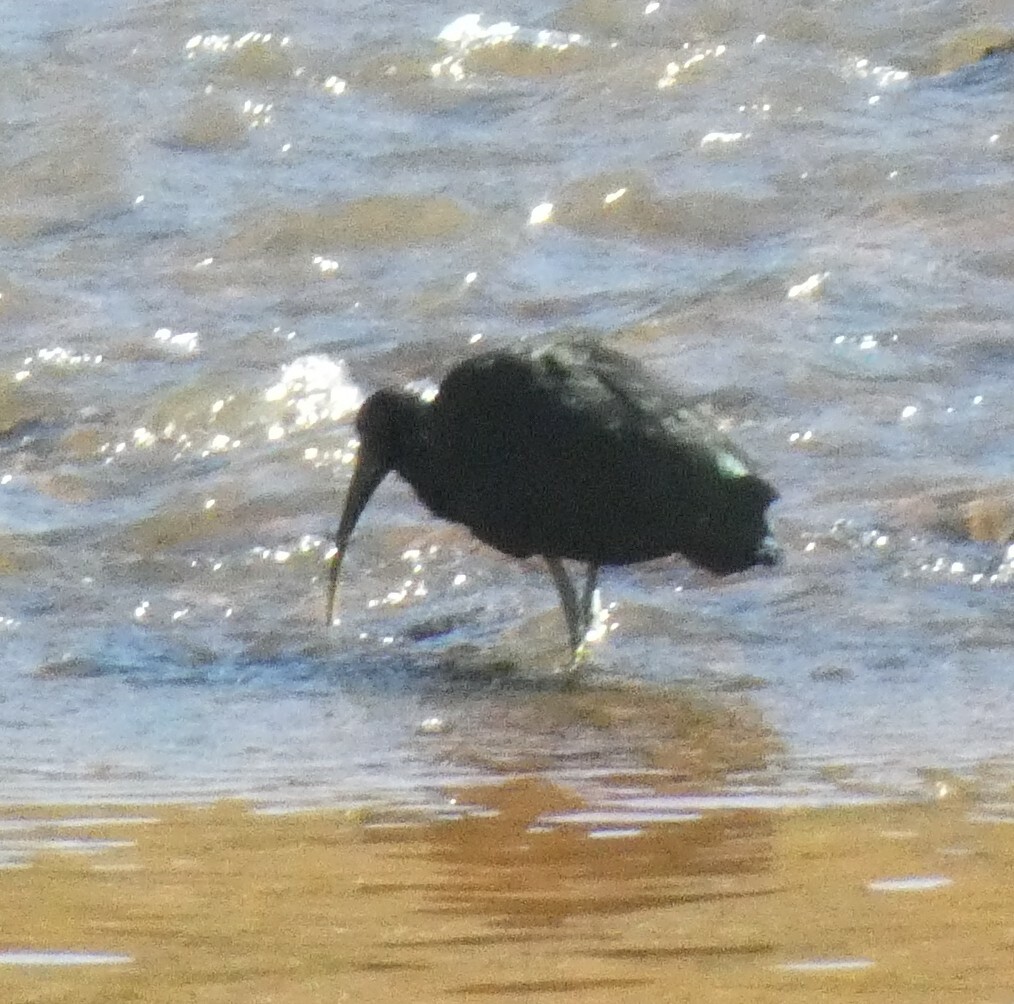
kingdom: Animalia
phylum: Chordata
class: Aves
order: Pelecaniformes
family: Threskiornithidae
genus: Mesembrinibis
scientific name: Mesembrinibis cayennensis
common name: Green ibis
